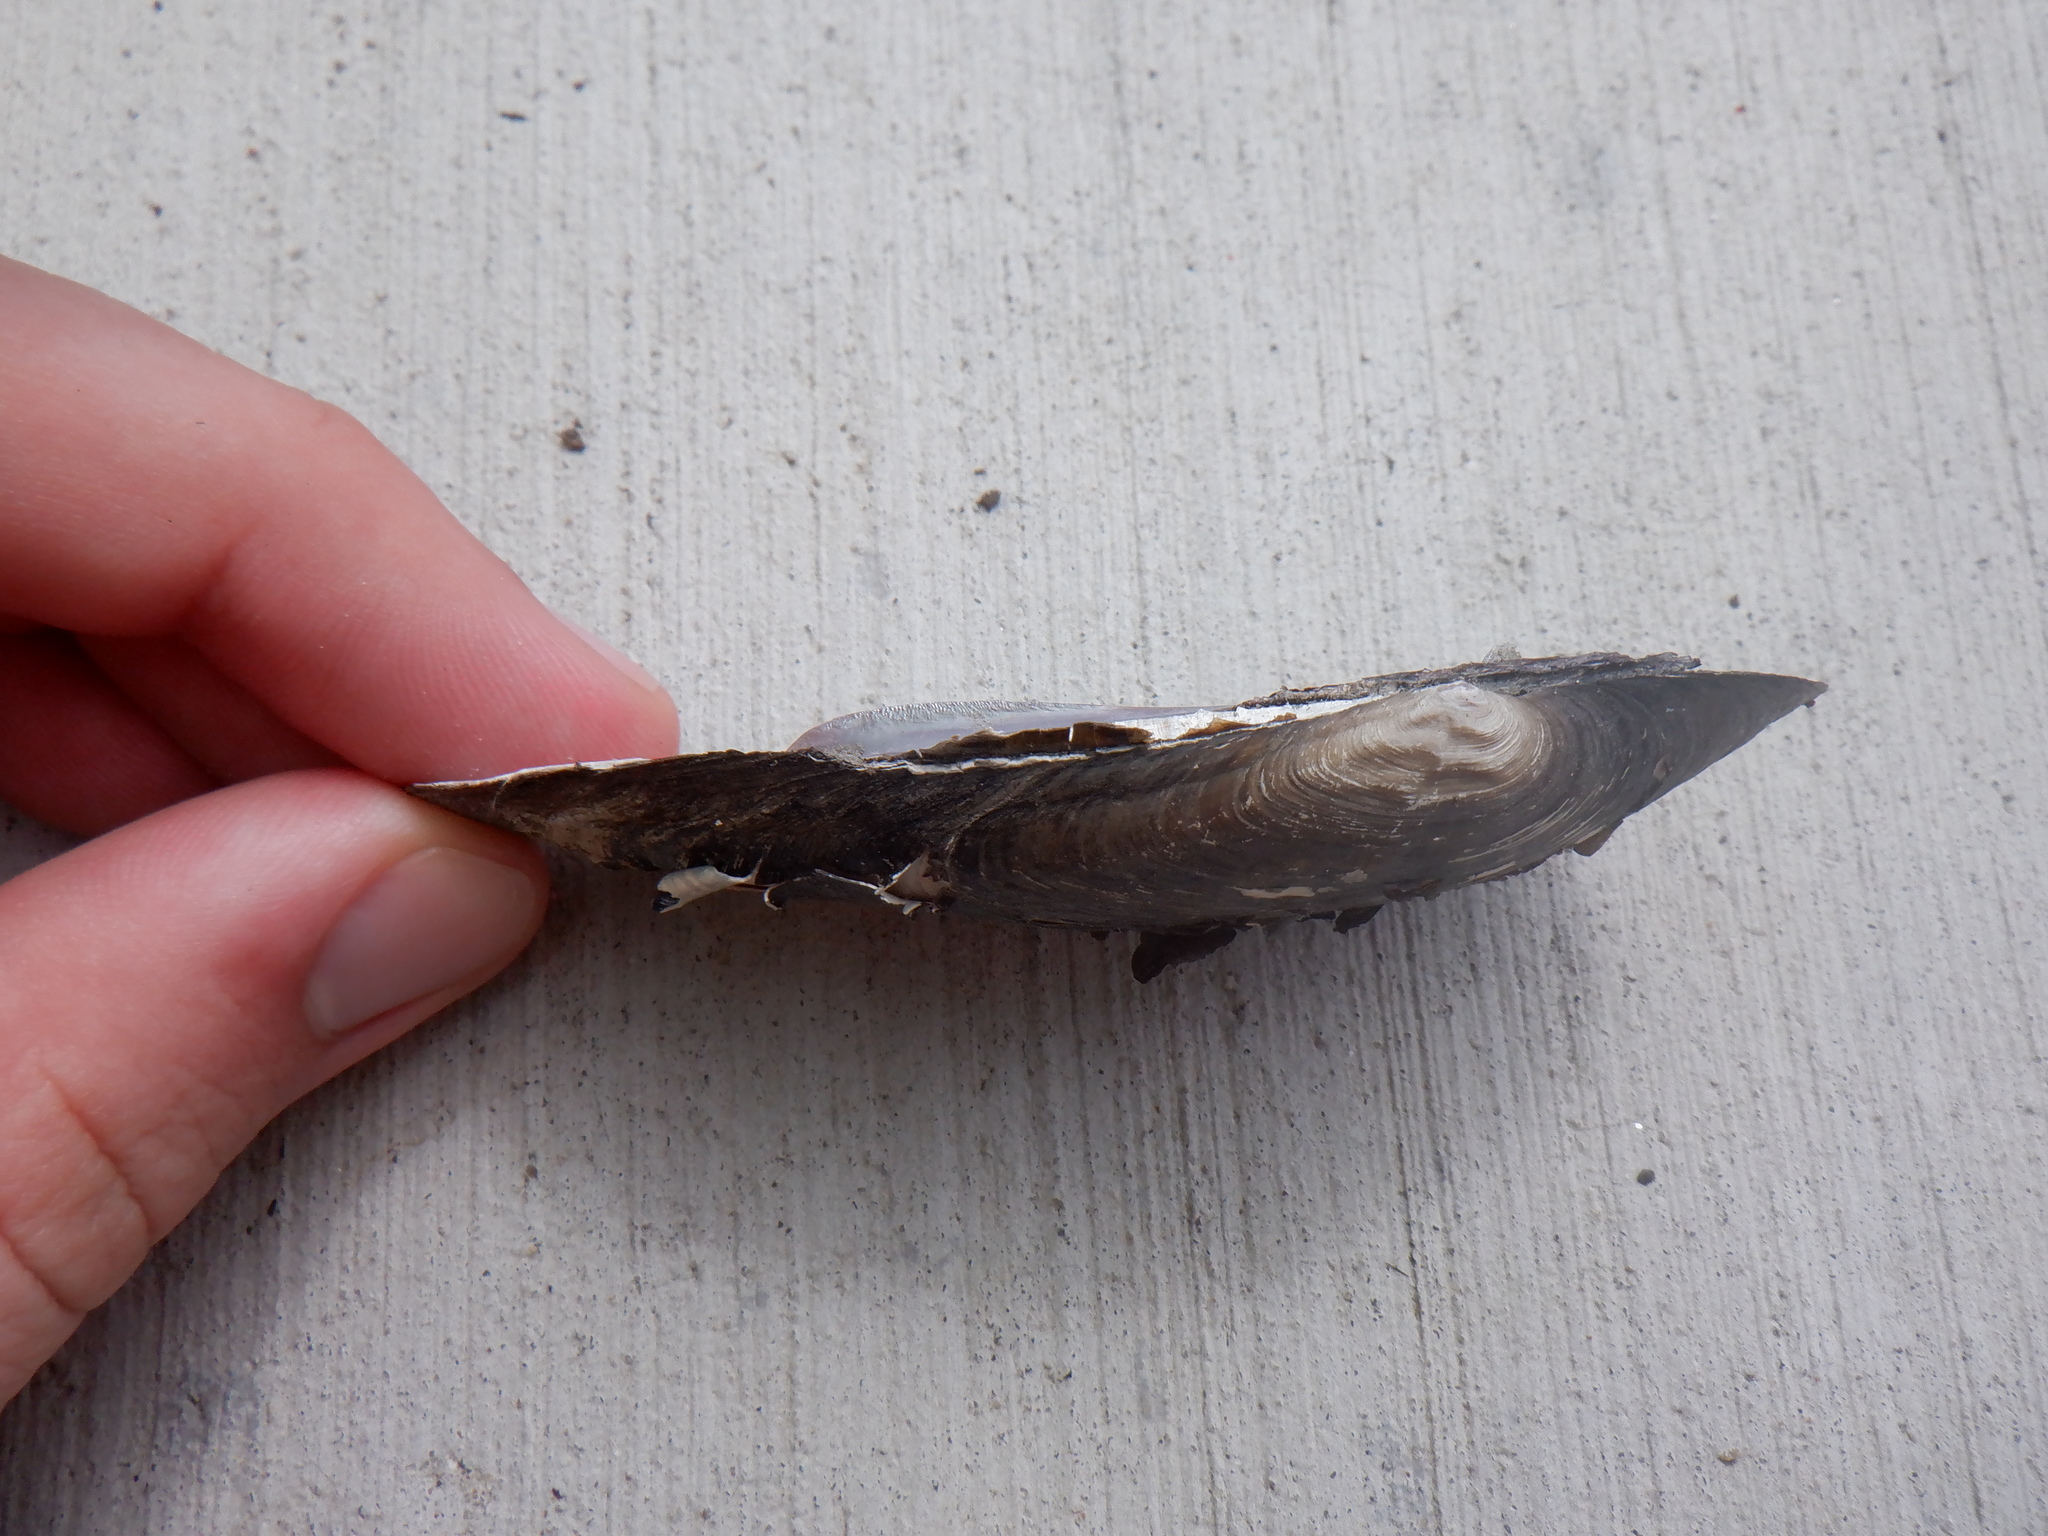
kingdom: Animalia
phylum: Mollusca
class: Bivalvia
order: Unionida
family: Unionidae
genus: Eurynia
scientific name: Eurynia dilatata
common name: Spike
